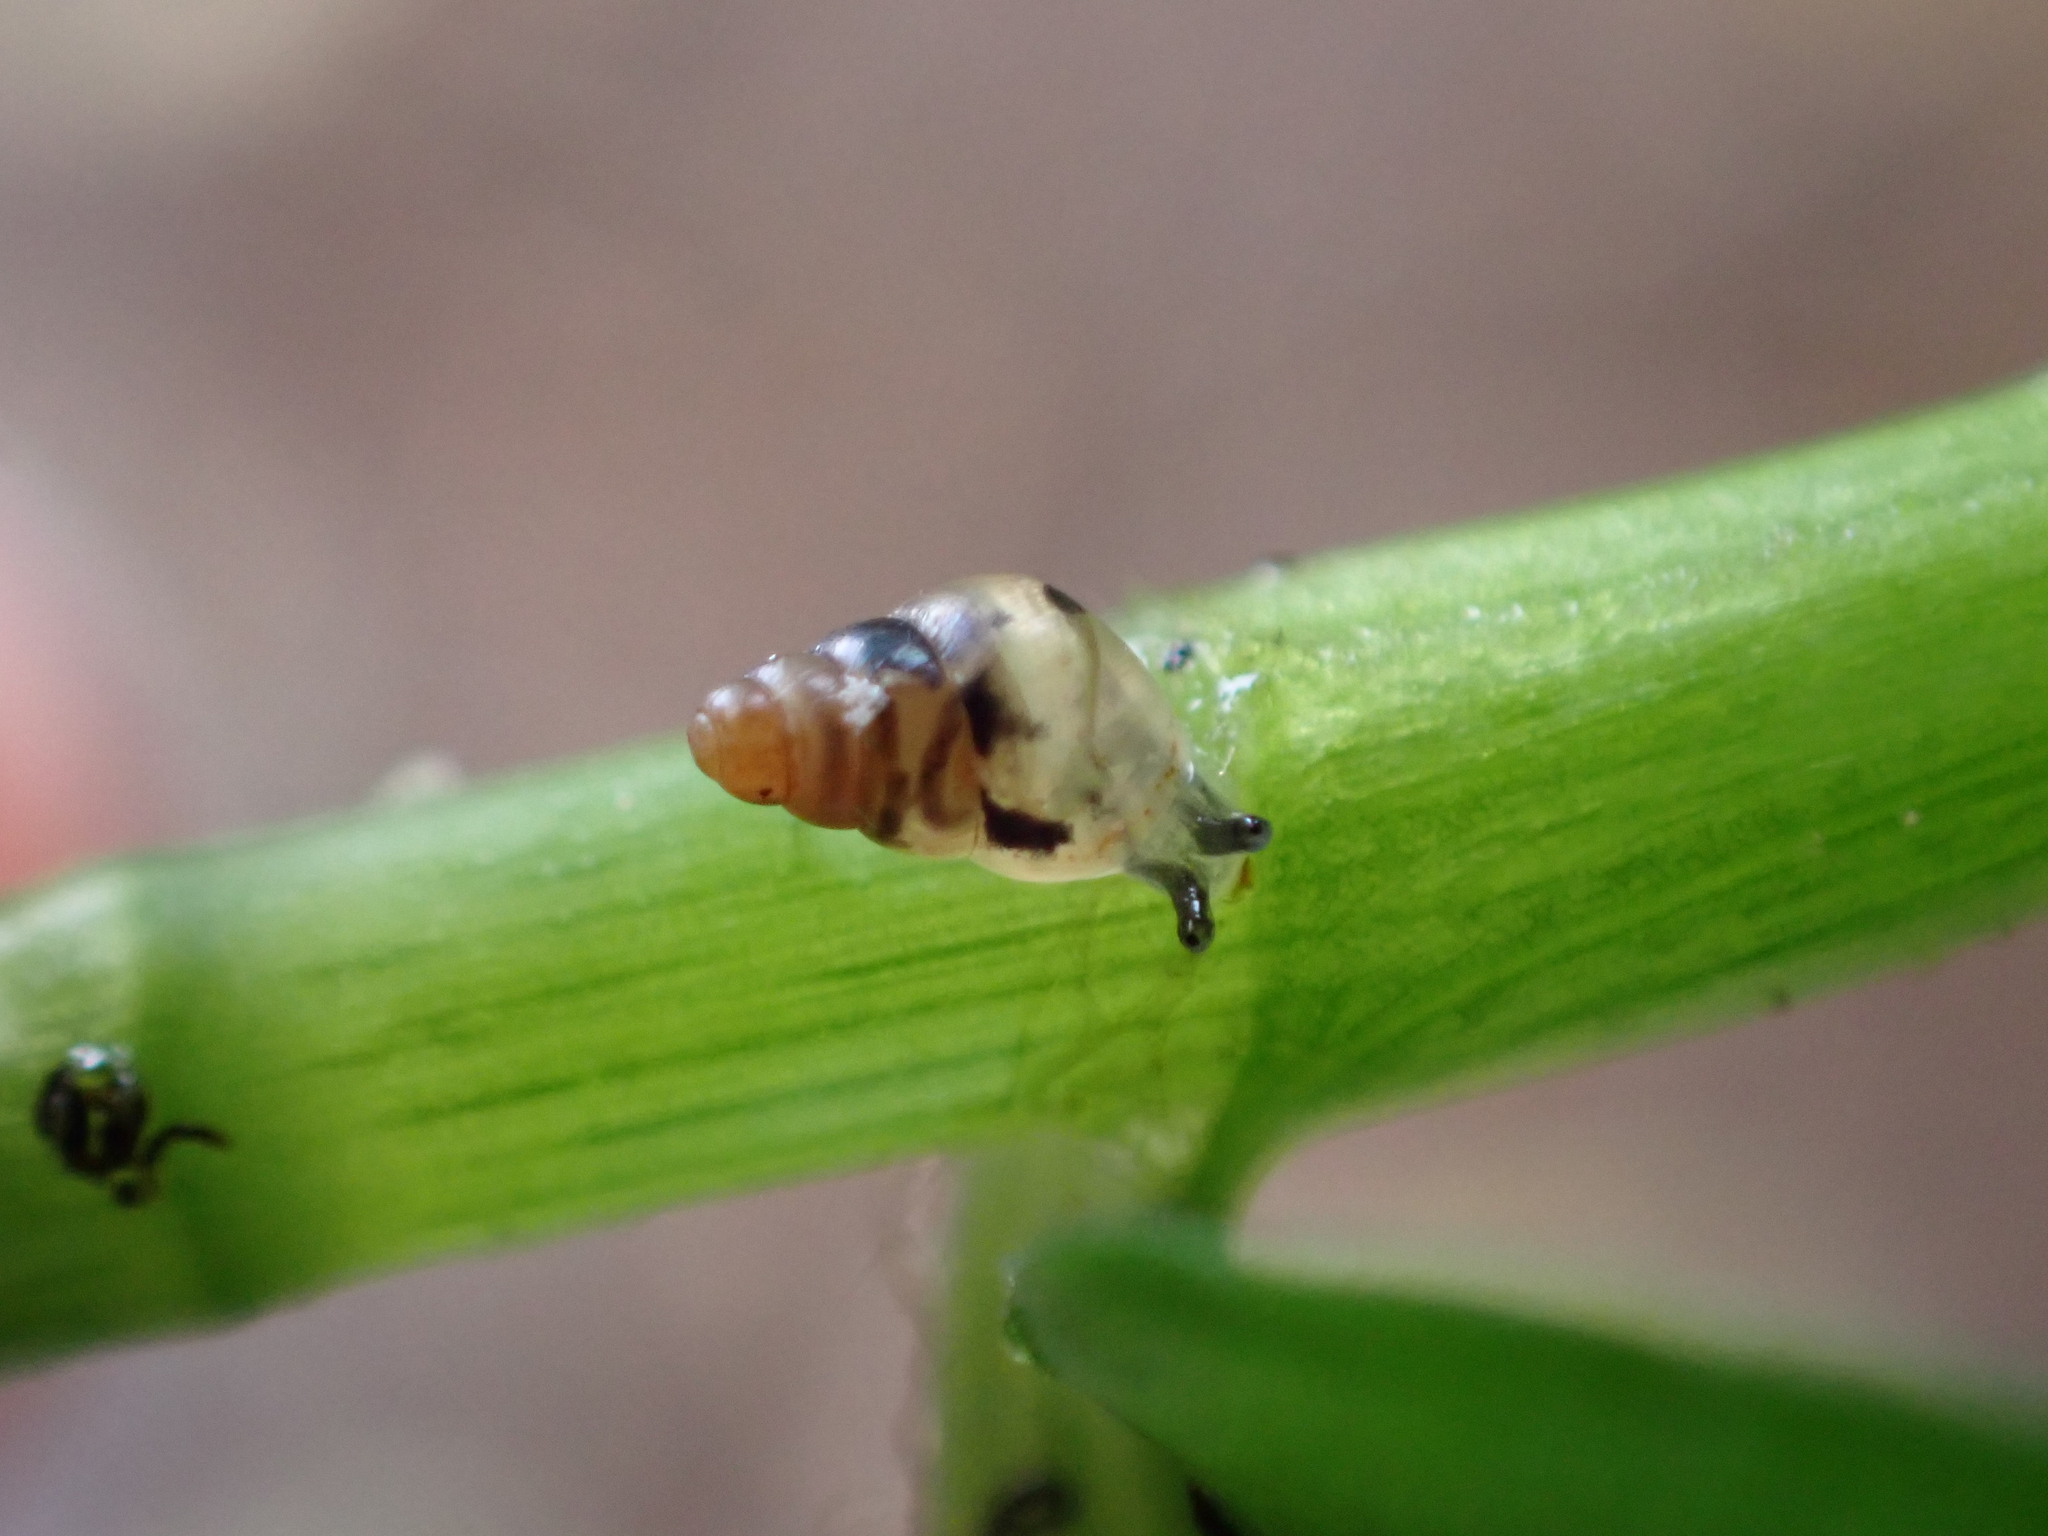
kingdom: Animalia
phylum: Mollusca
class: Gastropoda
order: Stylommatophora
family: Achatinellidae
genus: Tornatellides
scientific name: Tornatellides subperforatus
